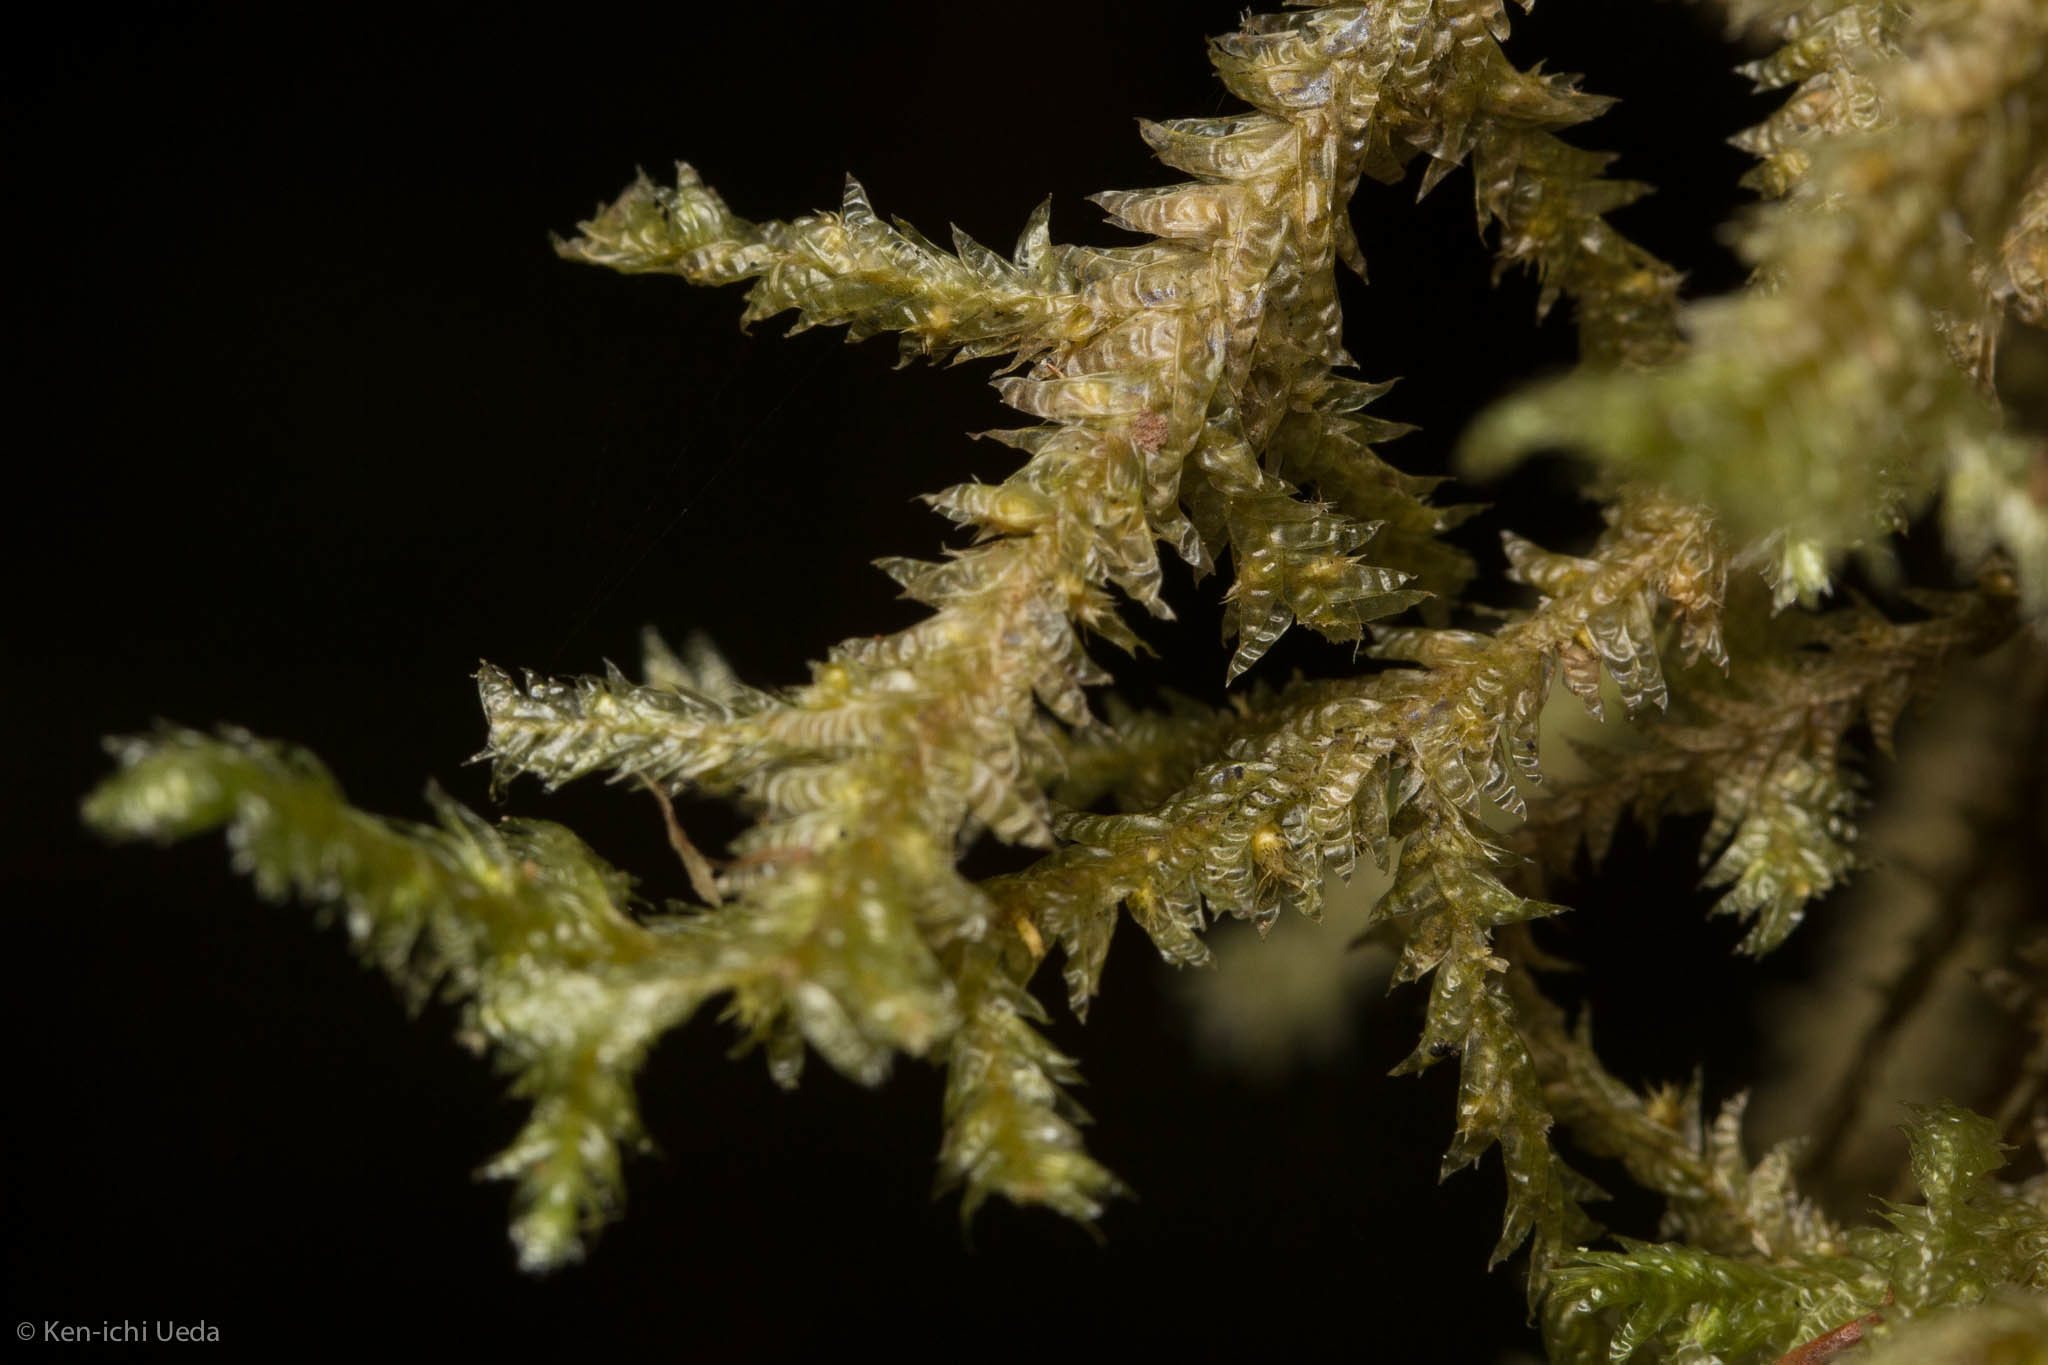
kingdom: Plantae
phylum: Bryophyta
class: Bryopsida
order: Hypnales
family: Neckeraceae
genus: Neckera
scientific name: Neckera douglasii
